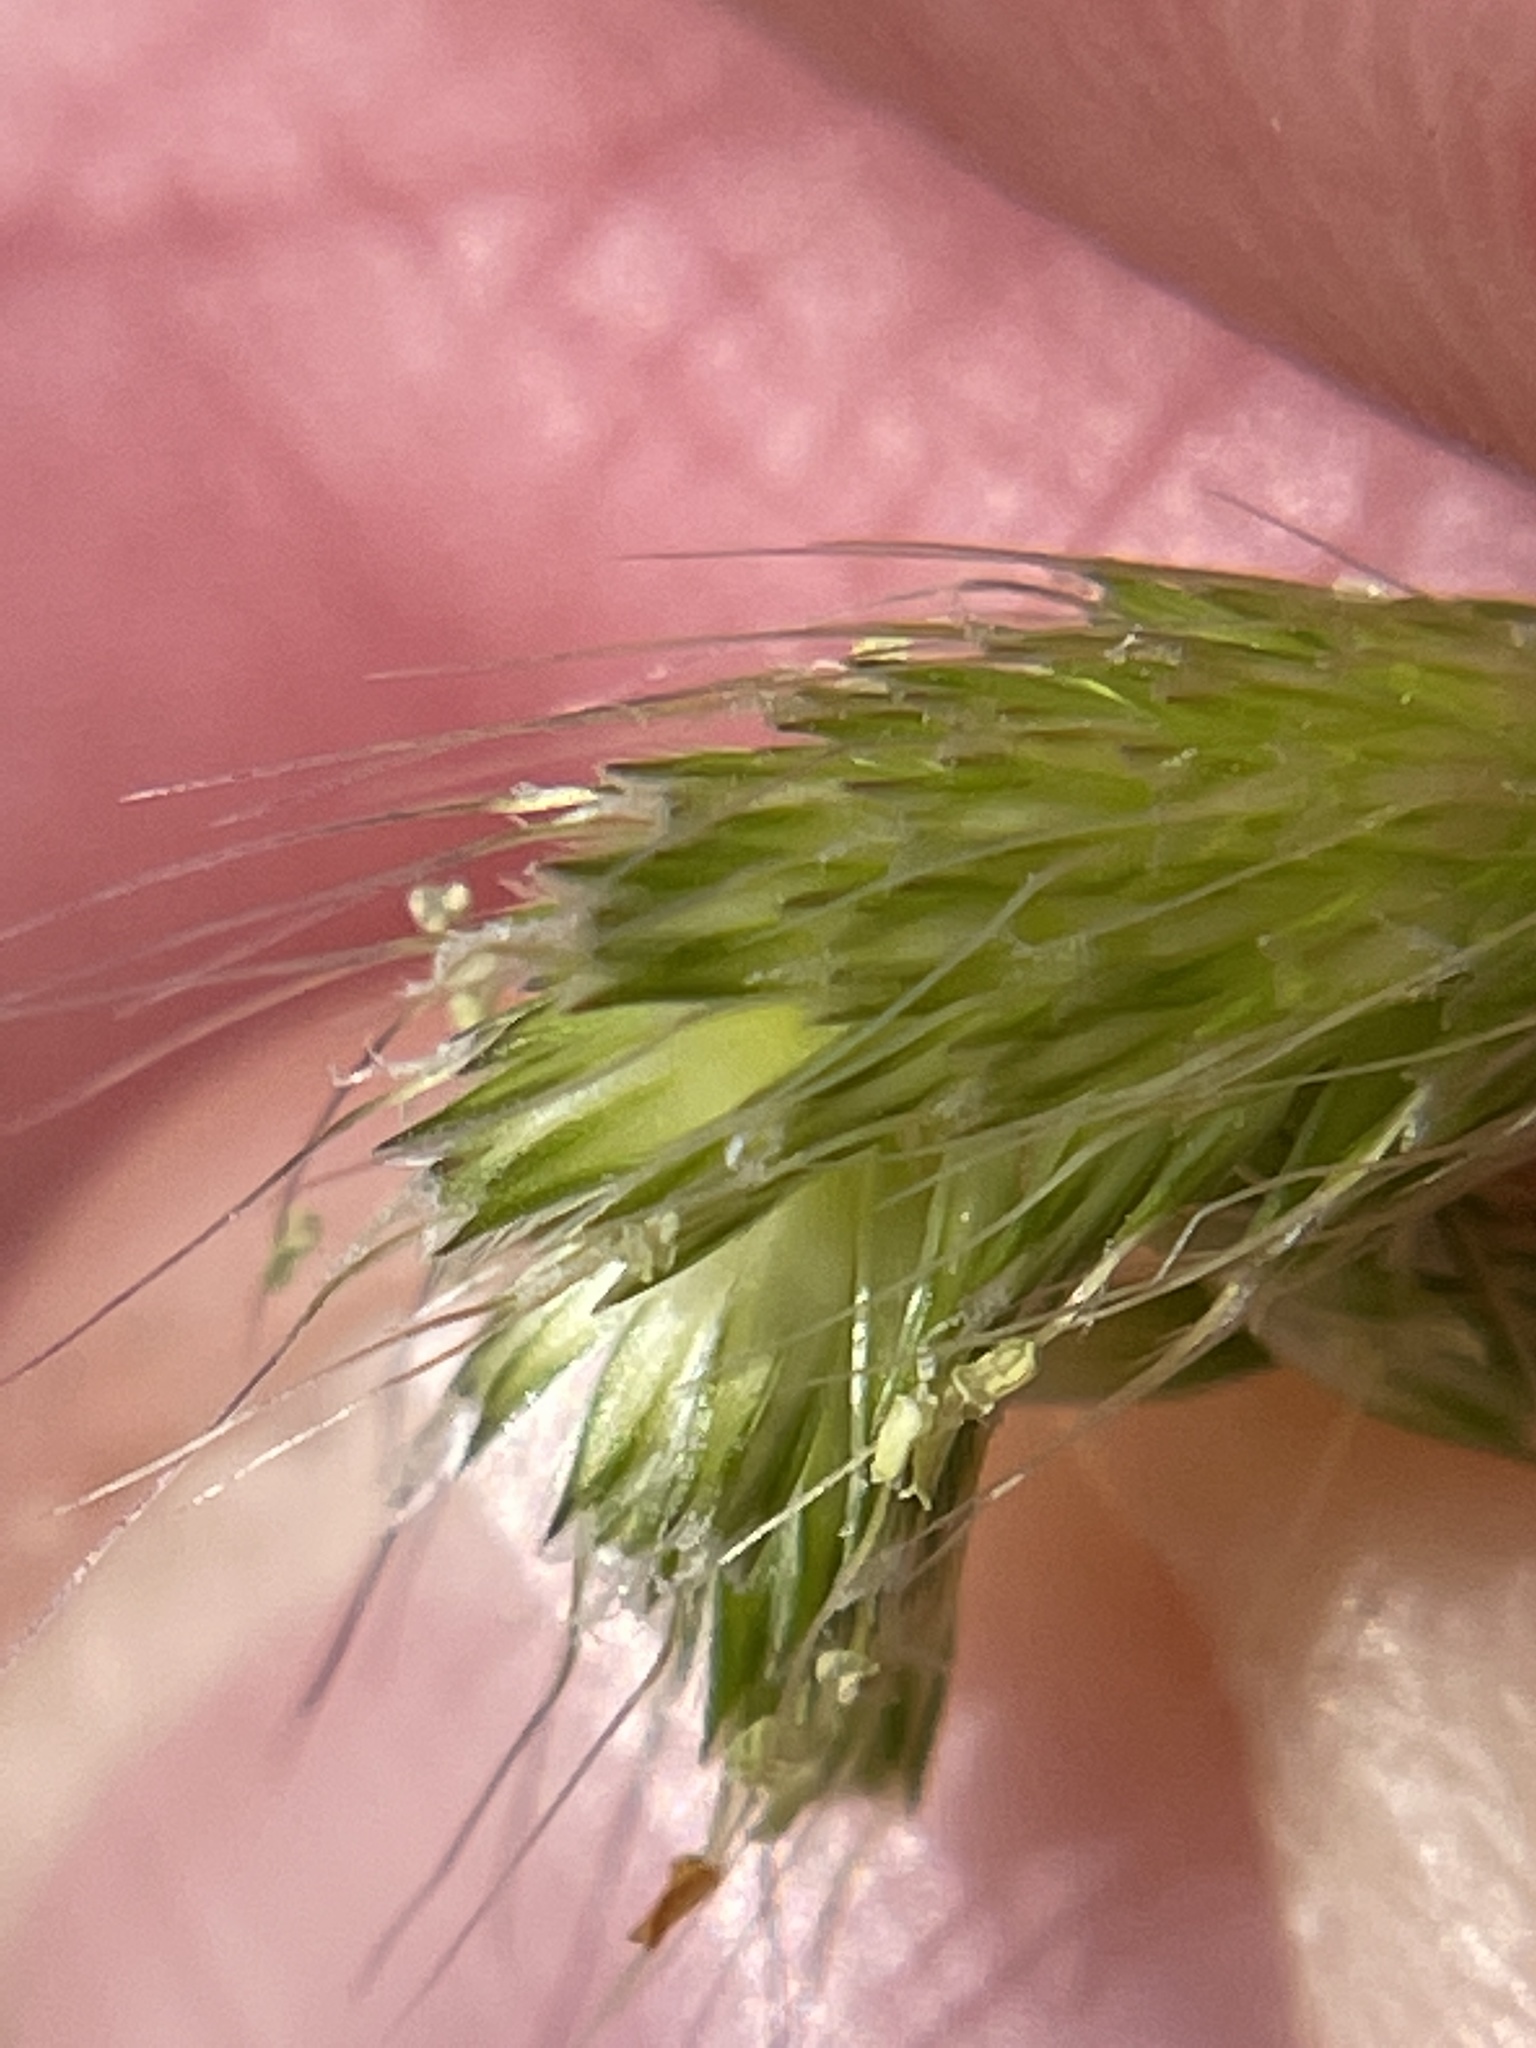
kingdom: Plantae
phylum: Tracheophyta
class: Liliopsida
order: Poales
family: Poaceae
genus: Alopecurus
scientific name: Alopecurus saccatus
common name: Pacific foxtail
